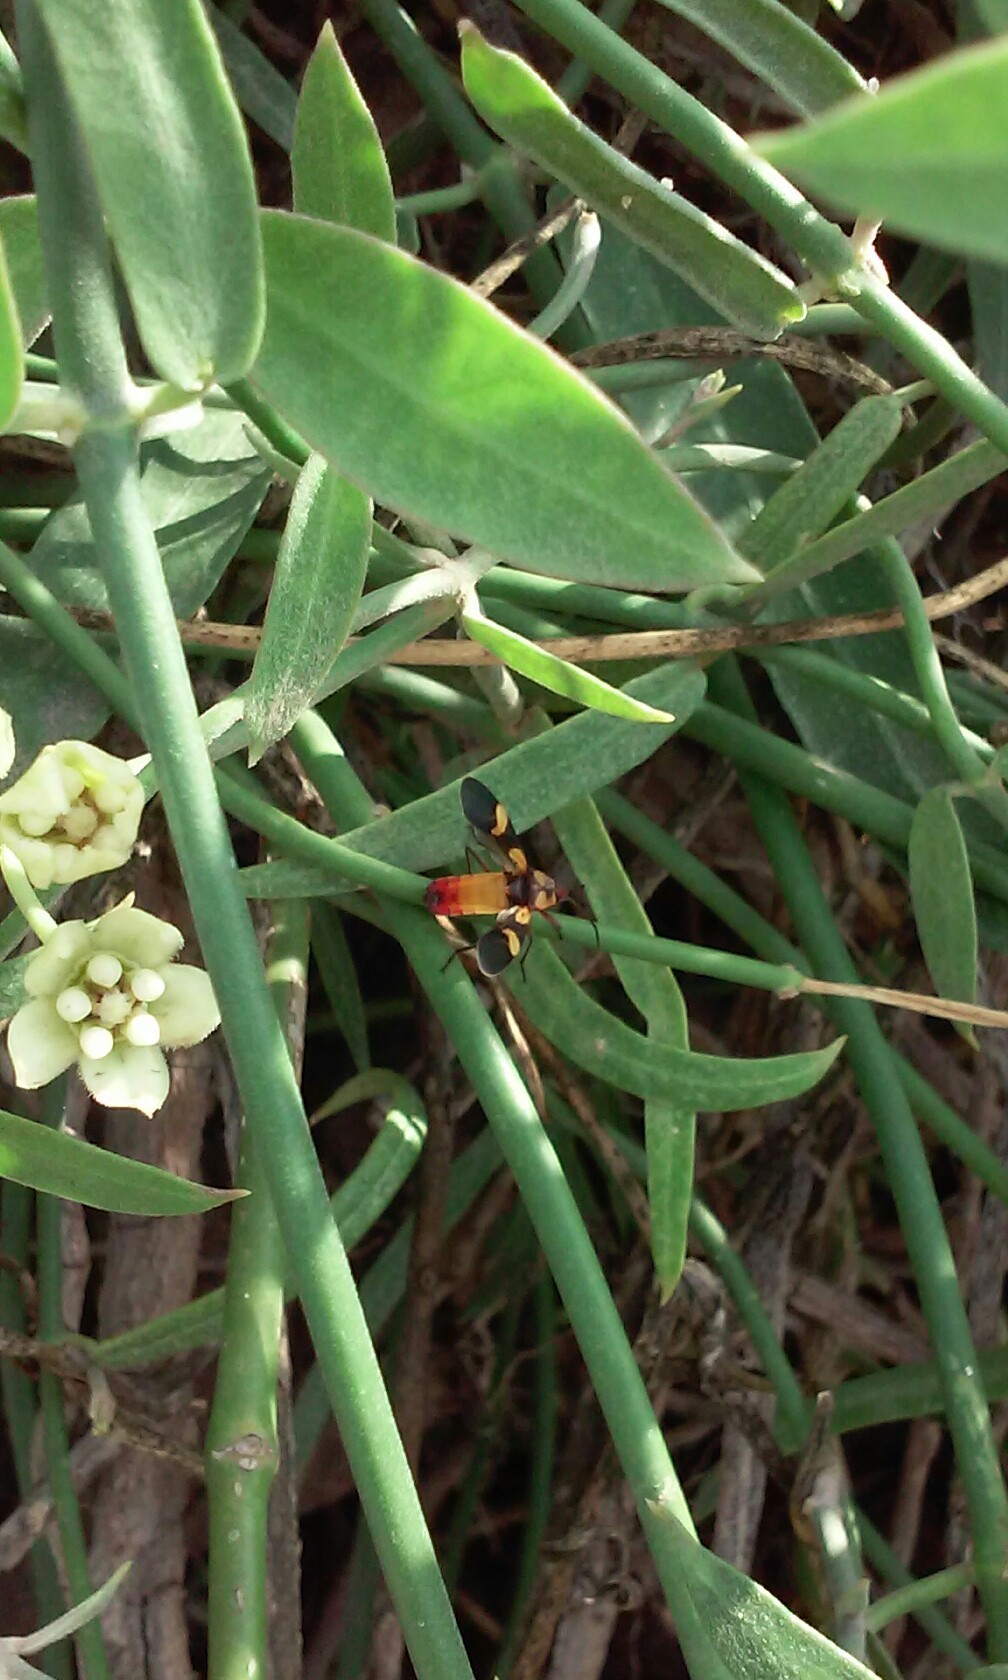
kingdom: Animalia
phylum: Arthropoda
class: Insecta
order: Hemiptera
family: Lygaeidae
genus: Oncopeltus
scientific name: Oncopeltus cingulifer
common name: Lygaeid bug
